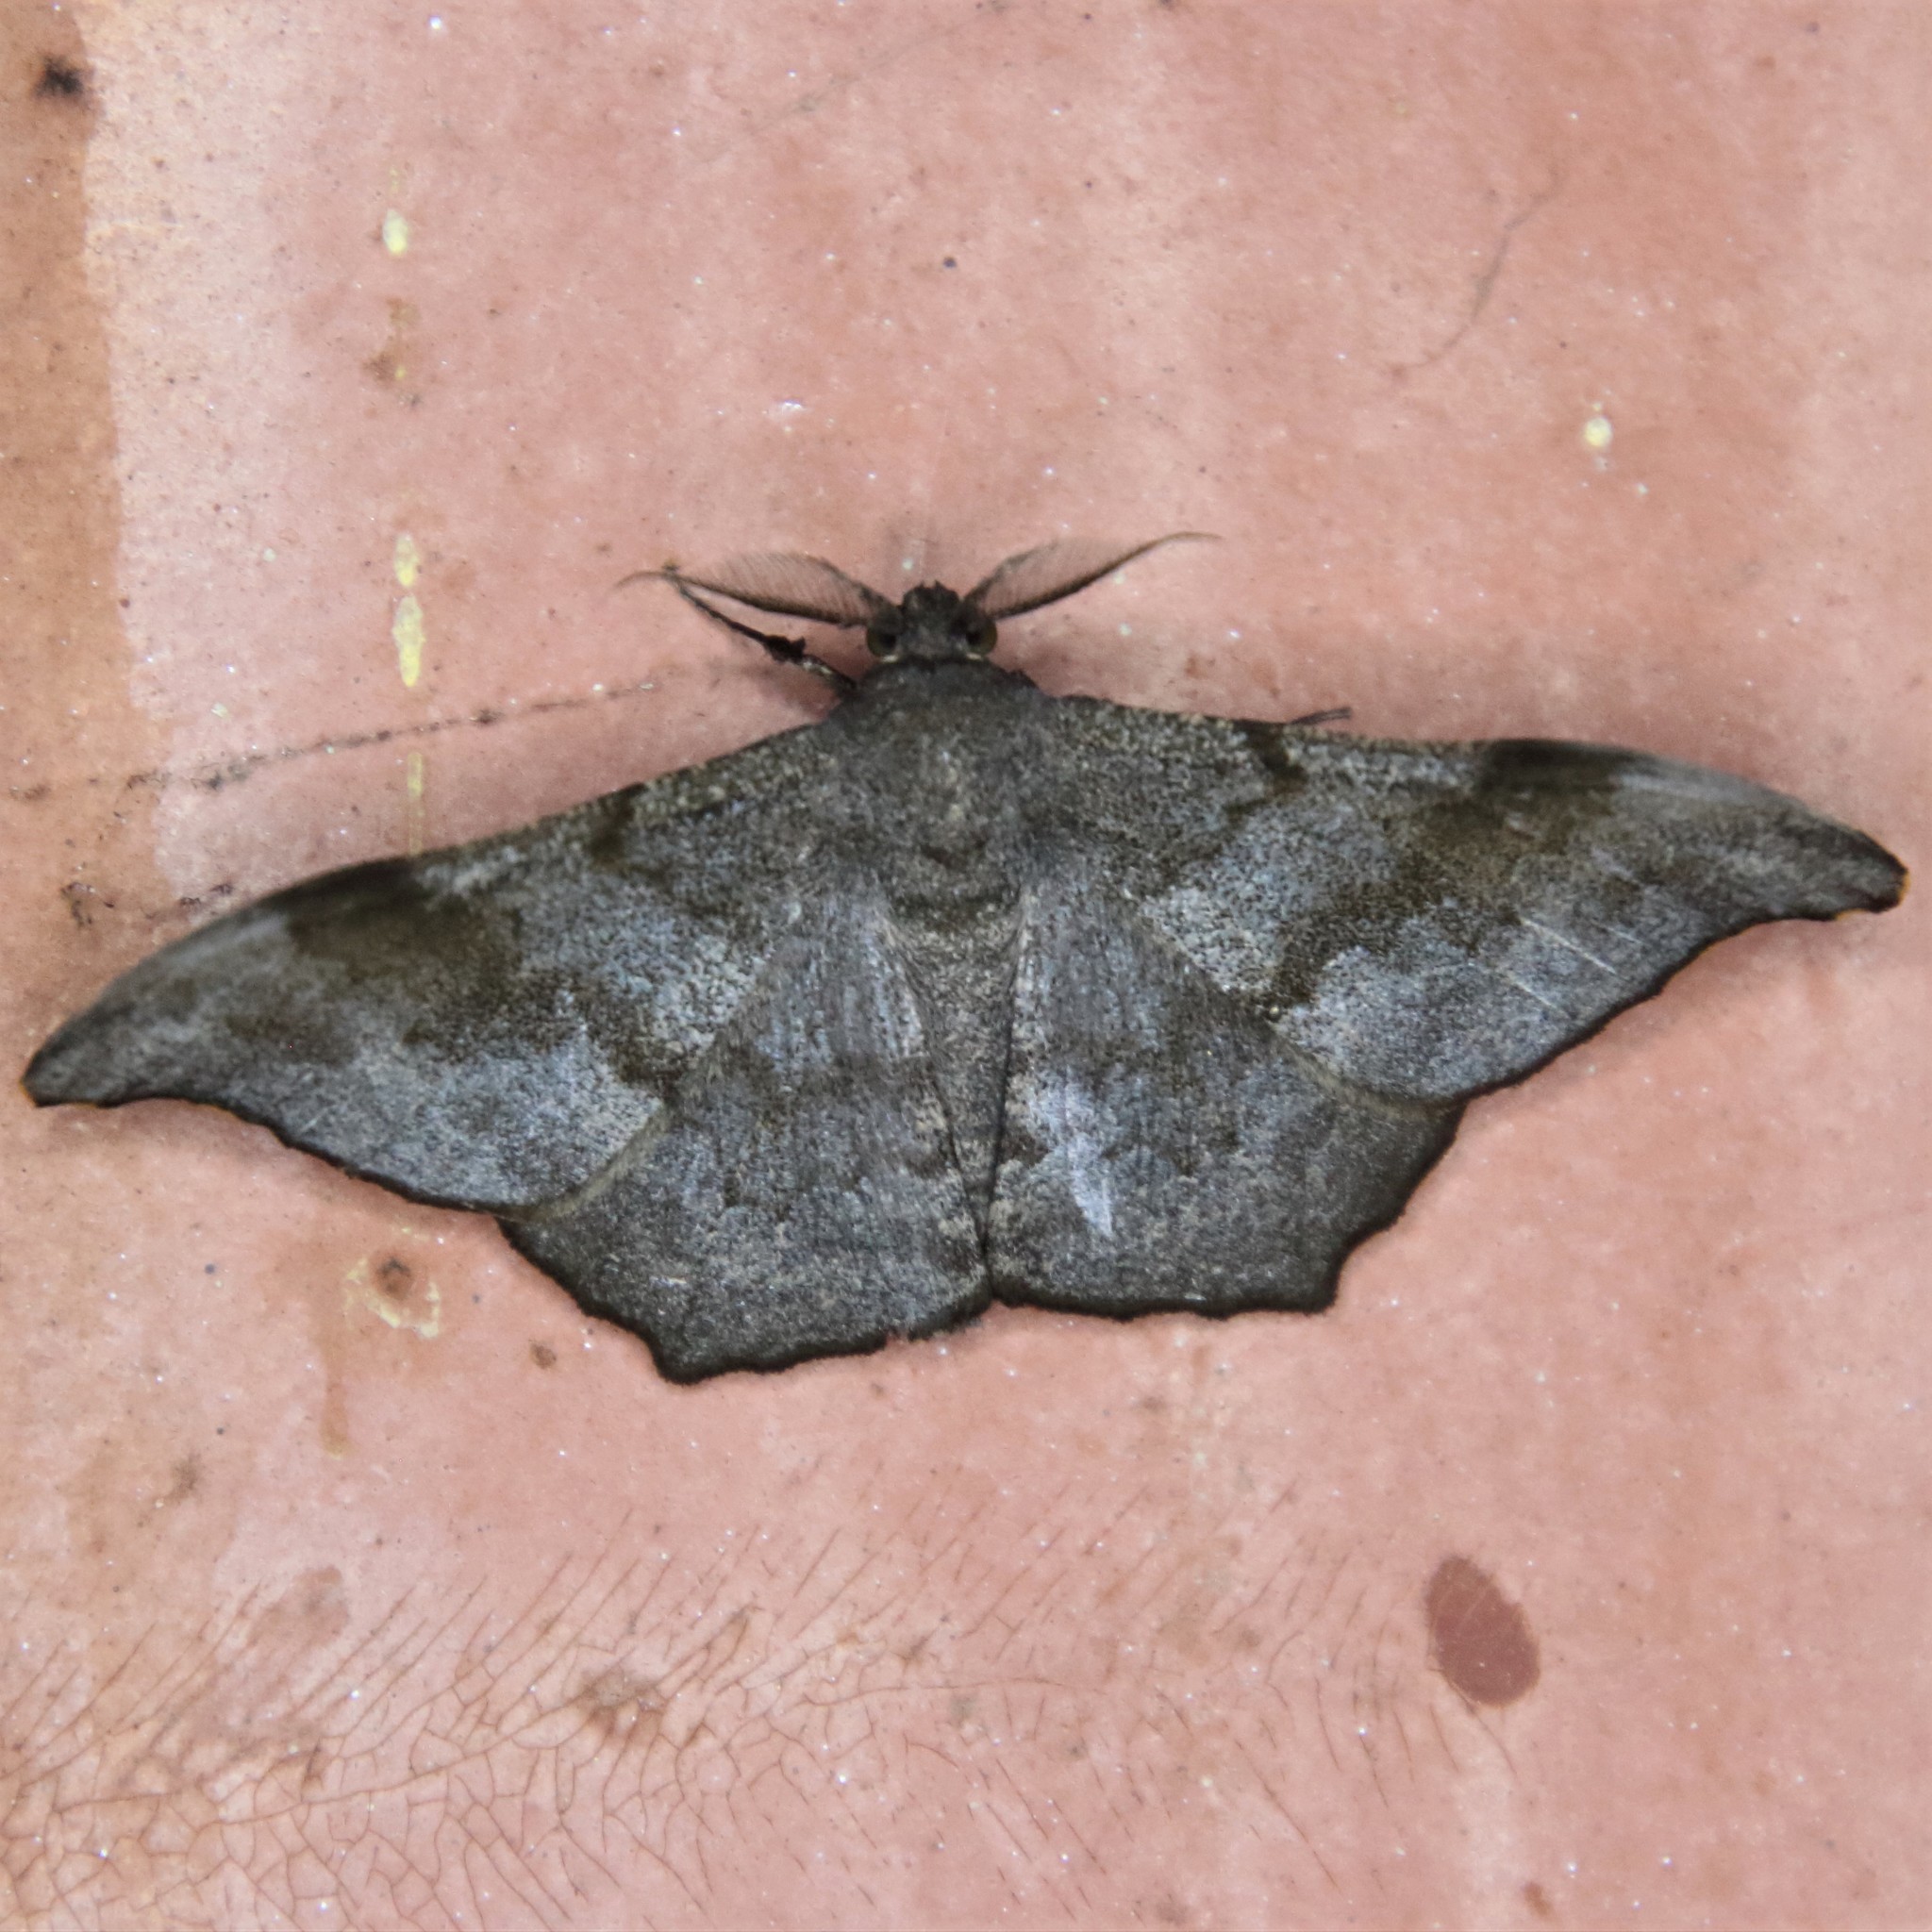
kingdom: Animalia
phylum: Arthropoda
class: Insecta
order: Lepidoptera
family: Geometridae
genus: Hyposidra
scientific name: Hyposidra talaca
